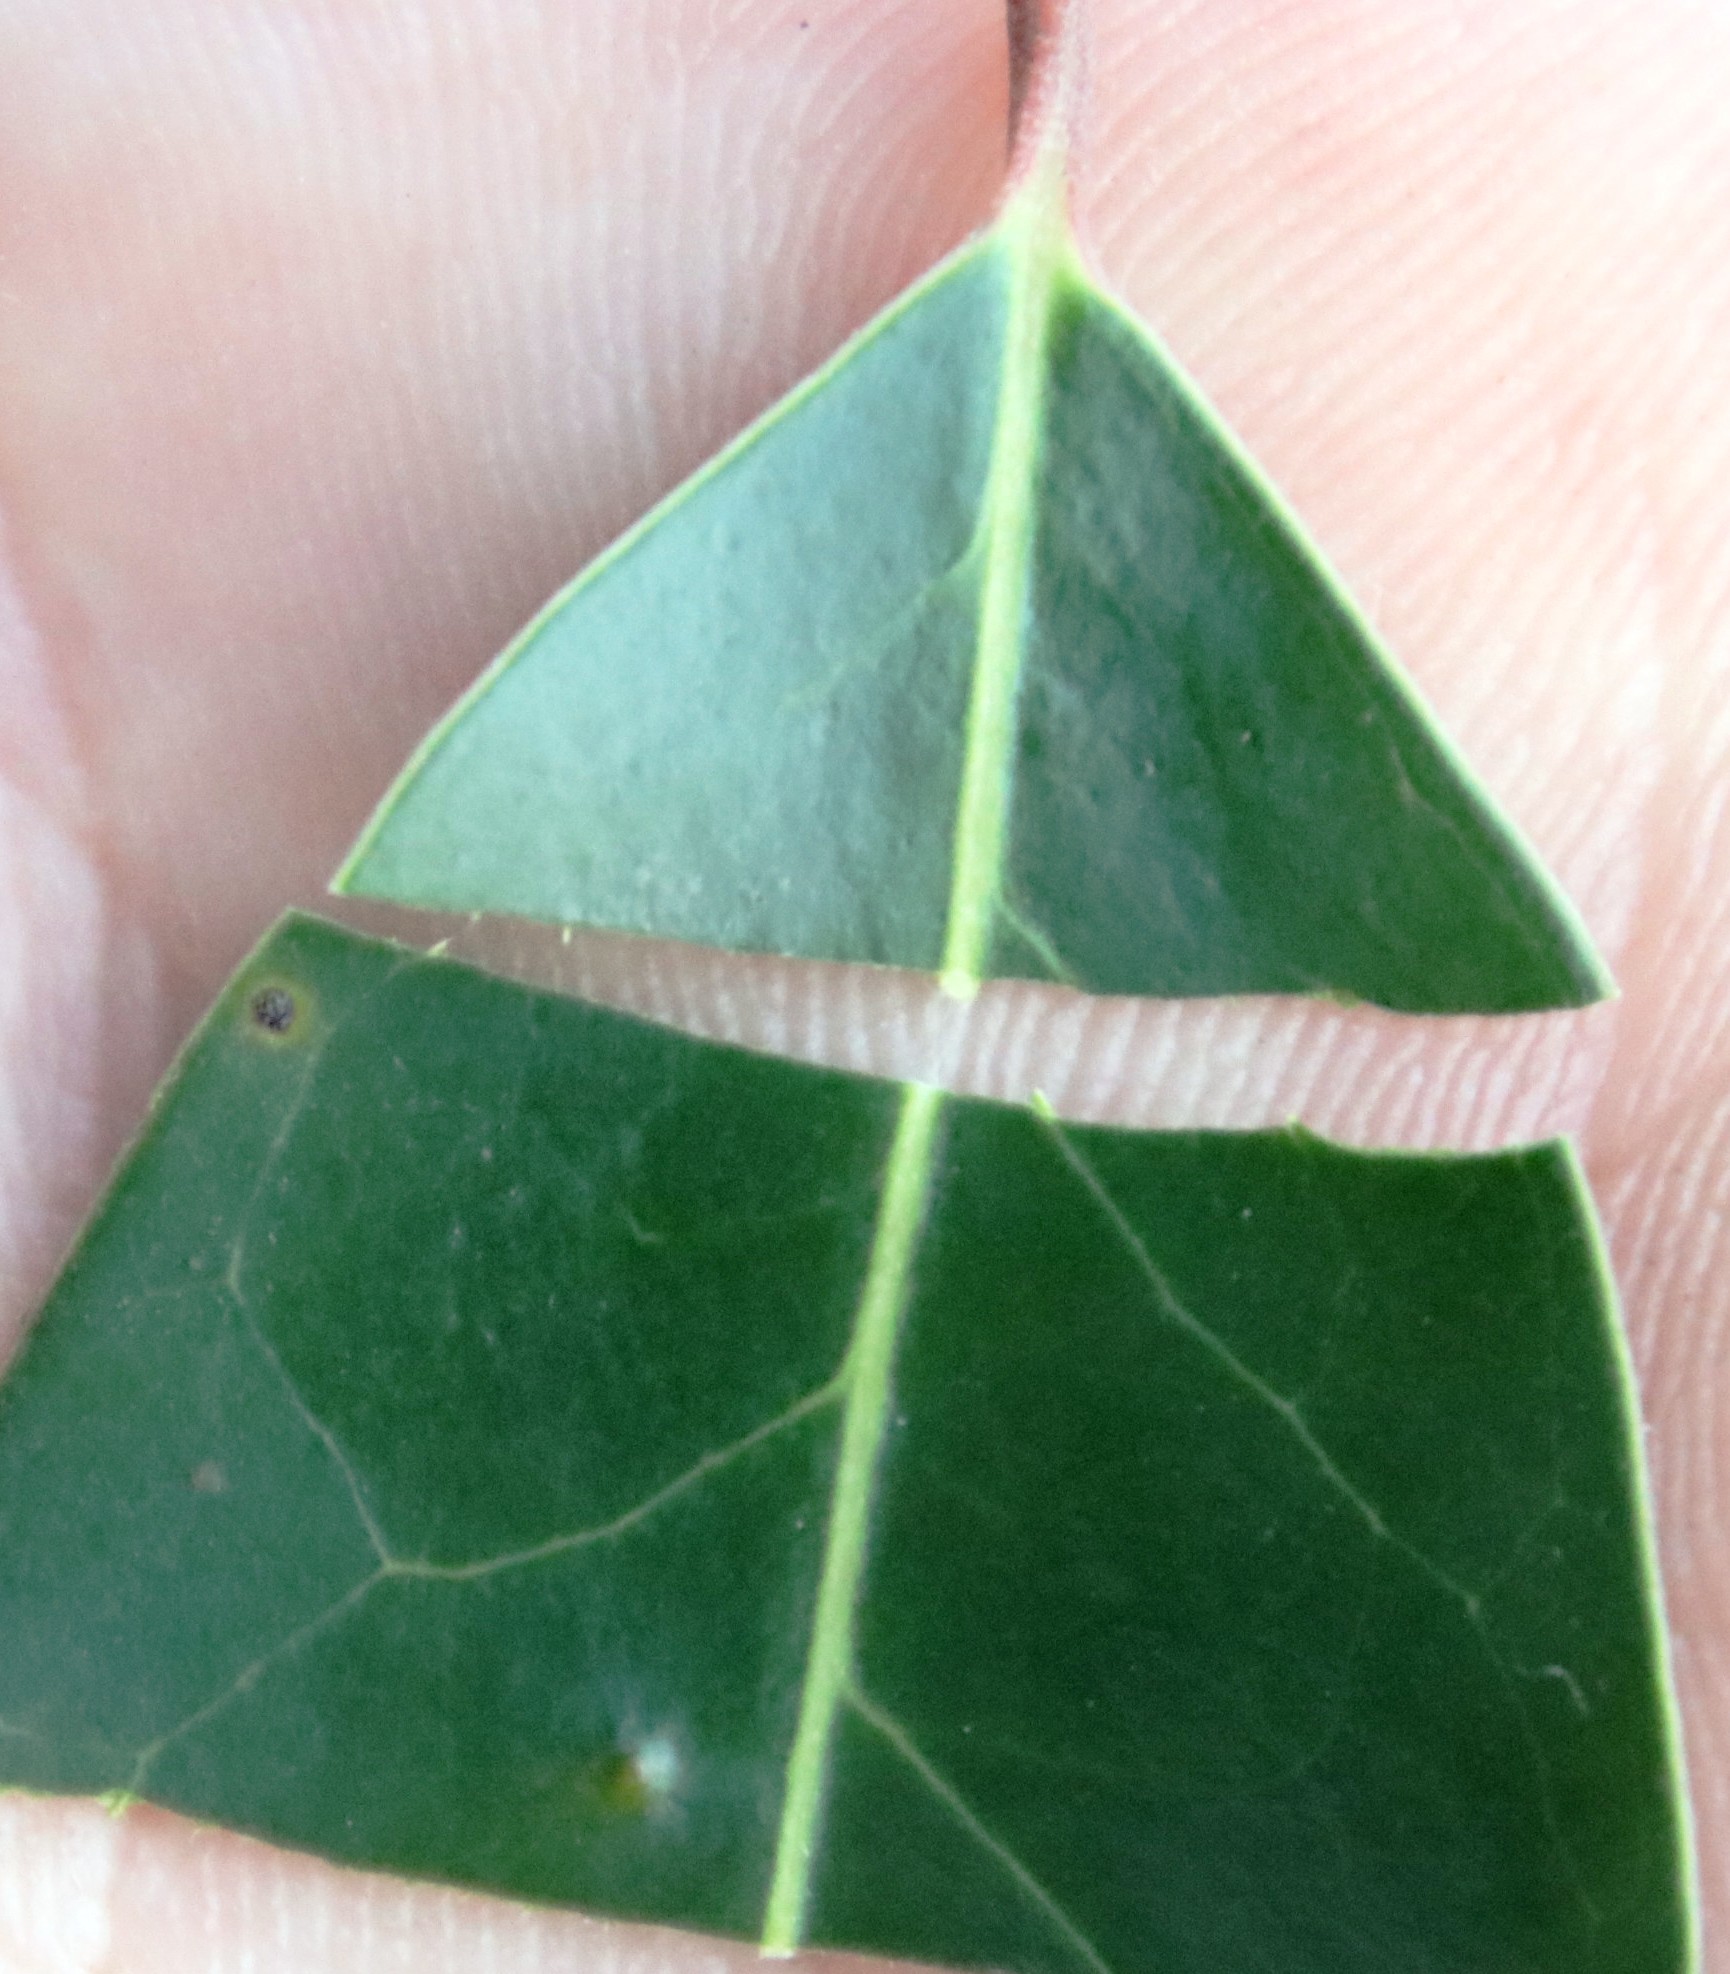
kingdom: Plantae
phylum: Tracheophyta
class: Magnoliopsida
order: Metteniusales
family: Metteniusaceae
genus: Apodytes
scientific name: Apodytes dimidiata
